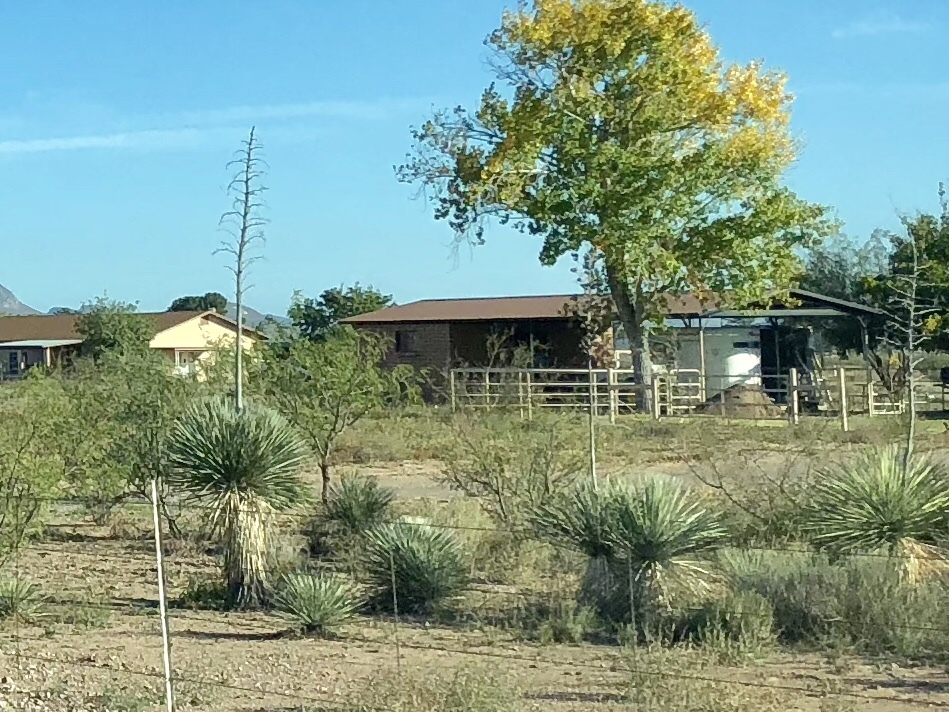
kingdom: Plantae
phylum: Tracheophyta
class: Liliopsida
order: Asparagales
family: Asparagaceae
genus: Yucca
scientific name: Yucca elata
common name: Palmella
